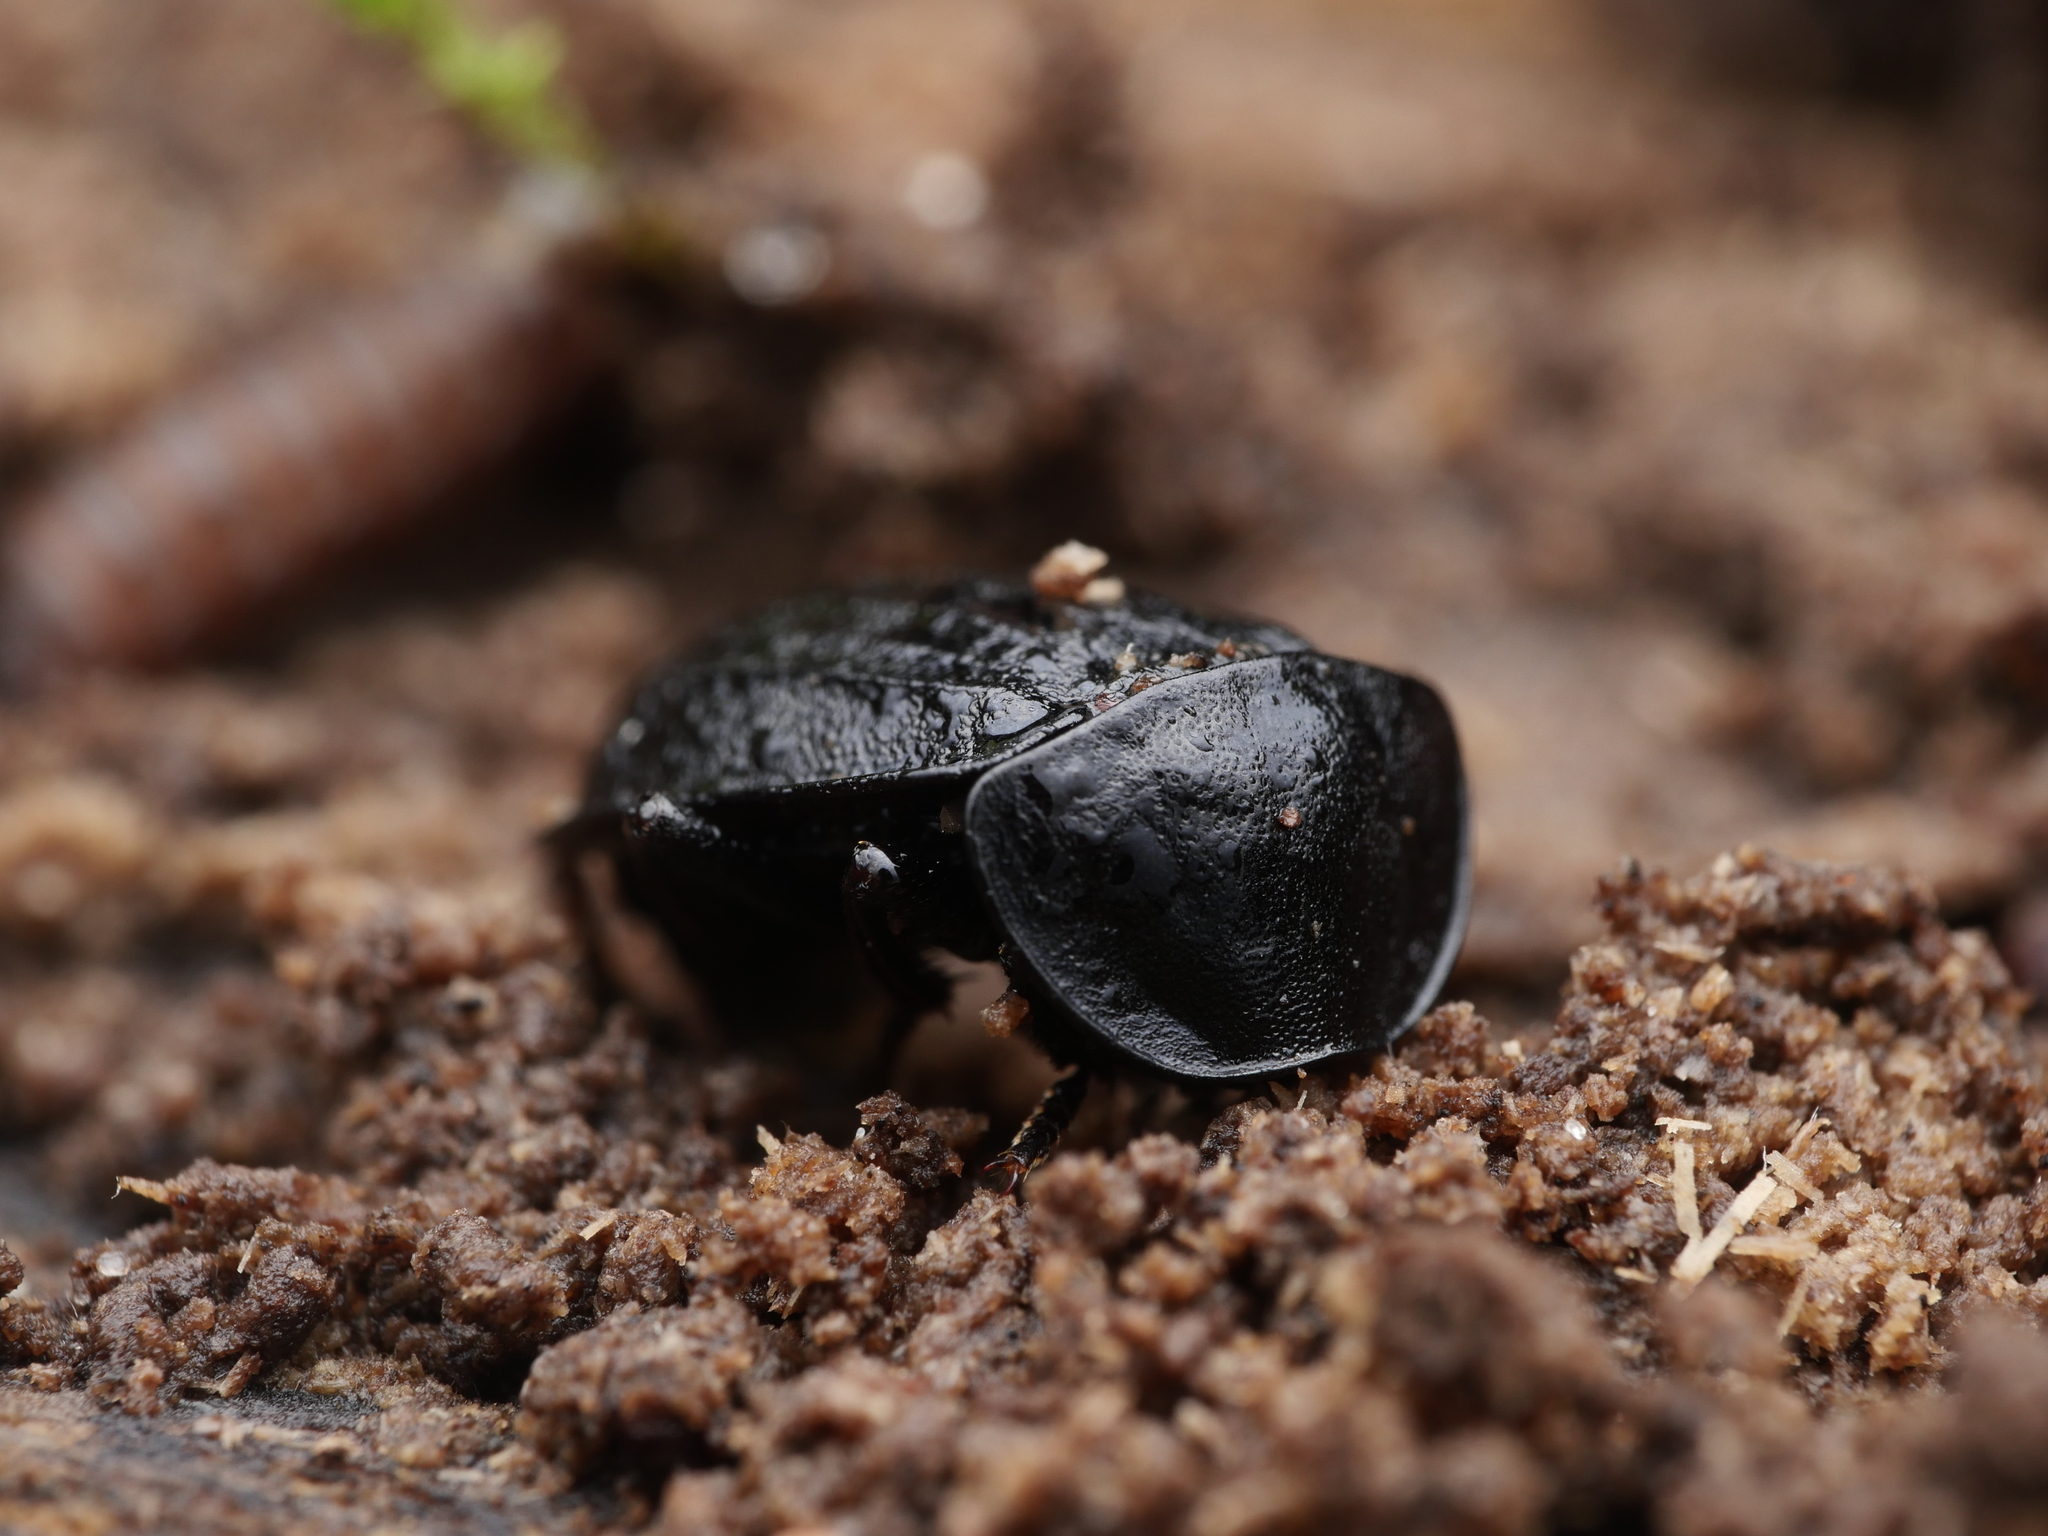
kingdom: Animalia
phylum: Arthropoda
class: Insecta
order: Coleoptera
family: Staphylinidae
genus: Silpha
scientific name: Silpha atrata
